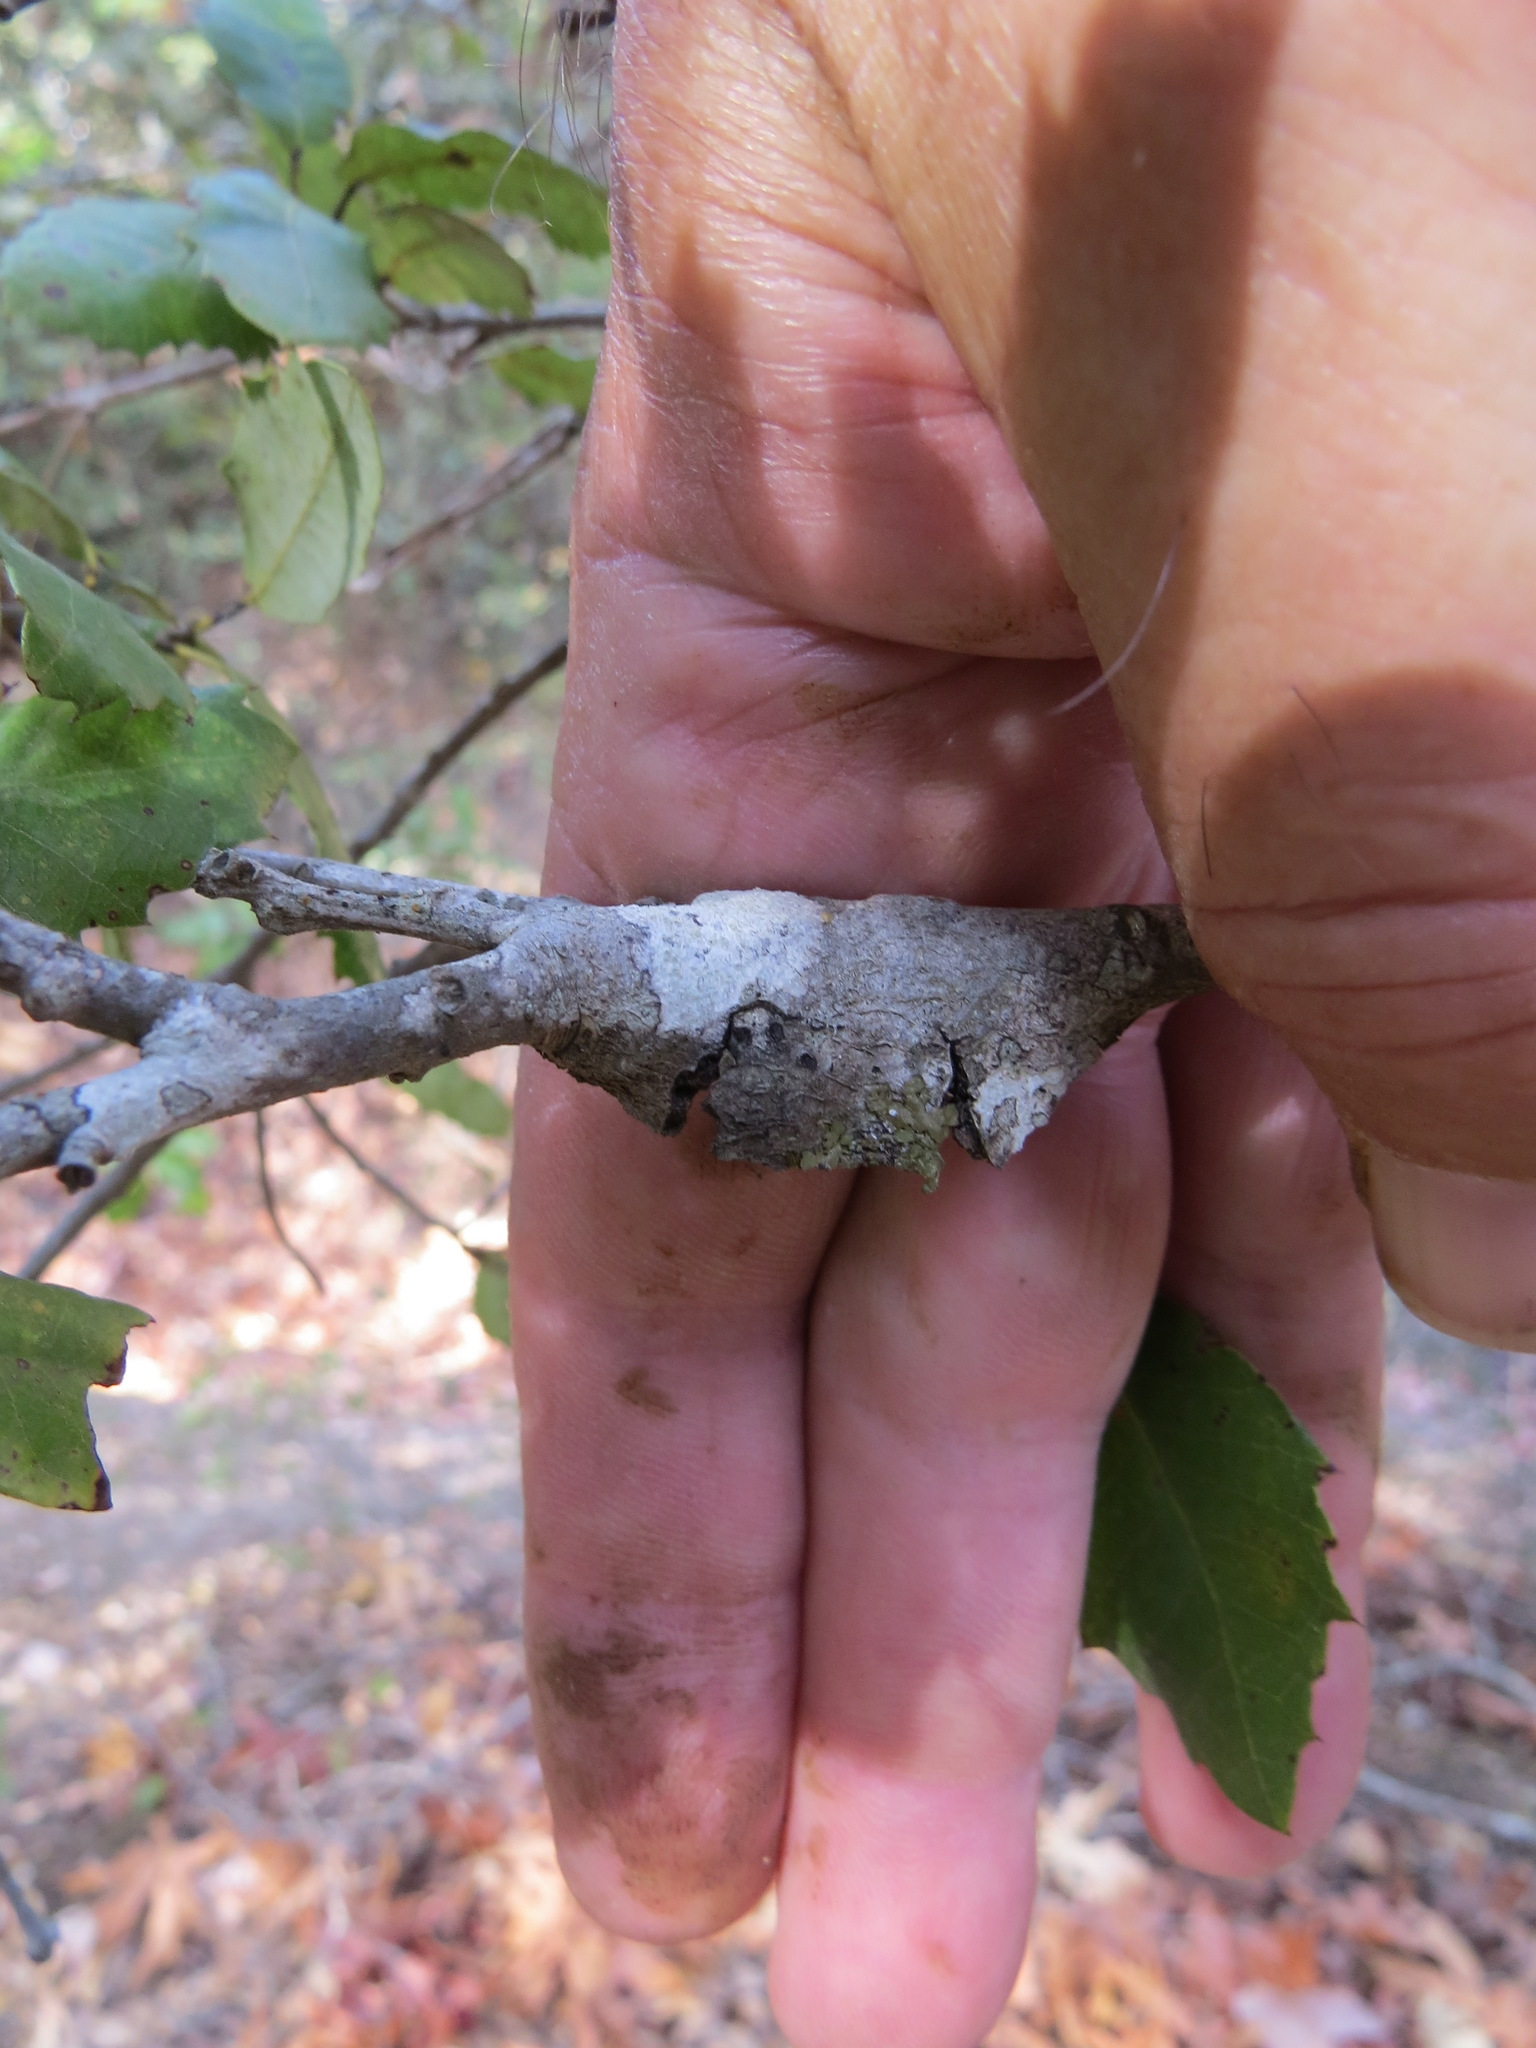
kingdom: Animalia
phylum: Arthropoda
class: Insecta
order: Hymenoptera
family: Cynipidae
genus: Dryocosmus
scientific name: Dryocosmus
